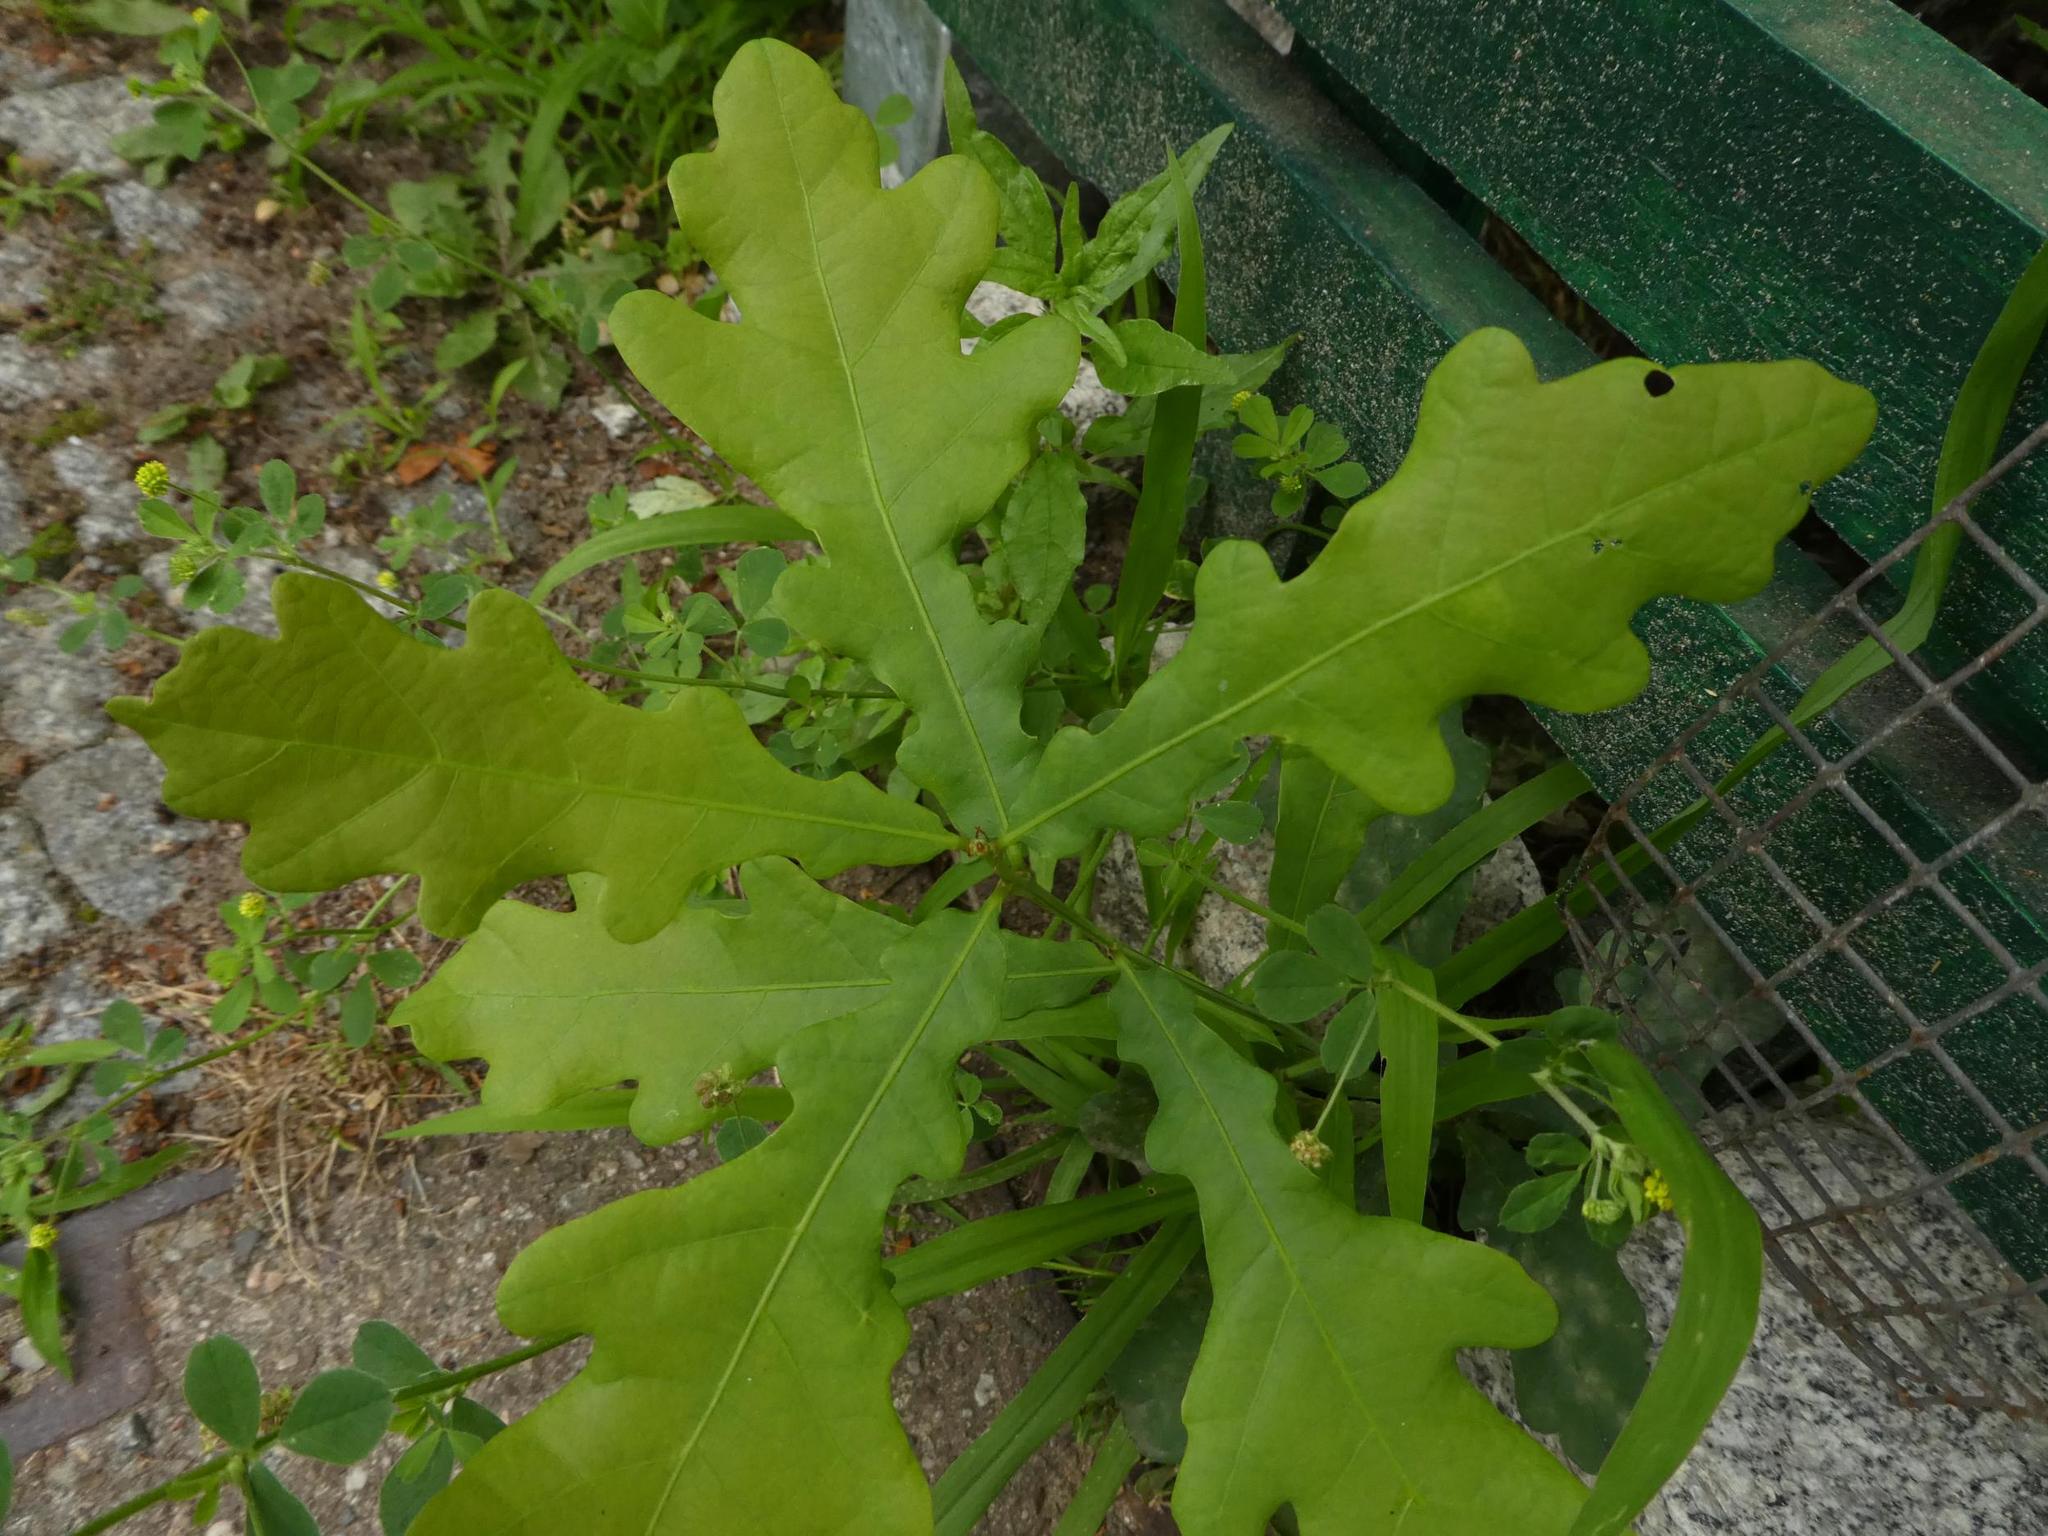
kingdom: Plantae
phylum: Tracheophyta
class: Magnoliopsida
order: Fagales
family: Fagaceae
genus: Quercus
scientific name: Quercus robur
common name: Pedunculate oak
